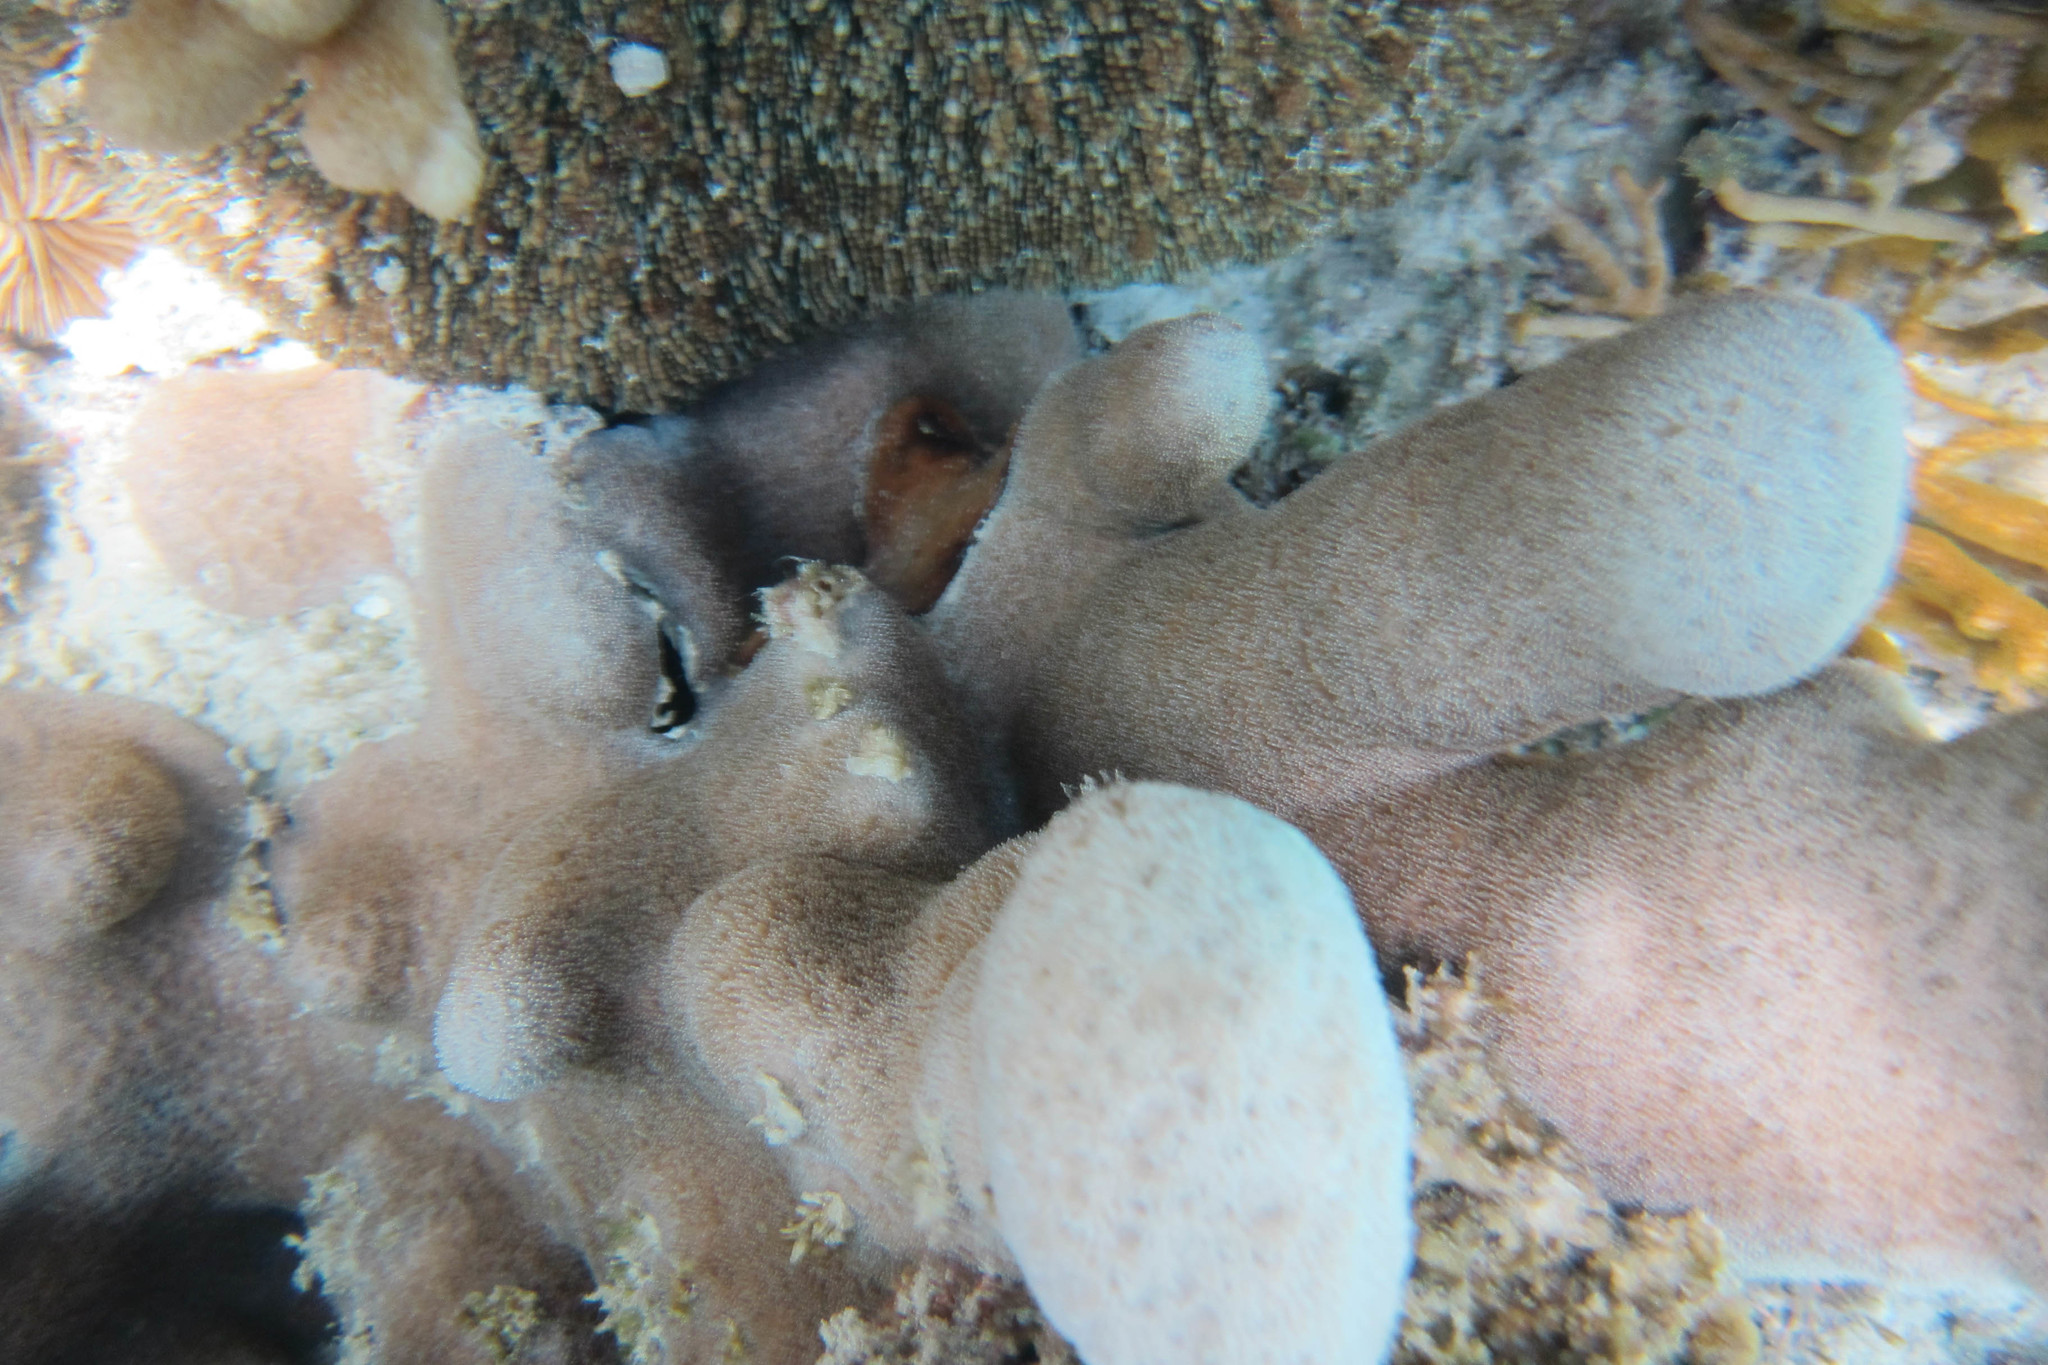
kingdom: Animalia
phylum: Cnidaria
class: Anthozoa
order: Scleractinia
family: Psammocoridae
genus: Psammocora
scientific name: Psammocora haimiana
